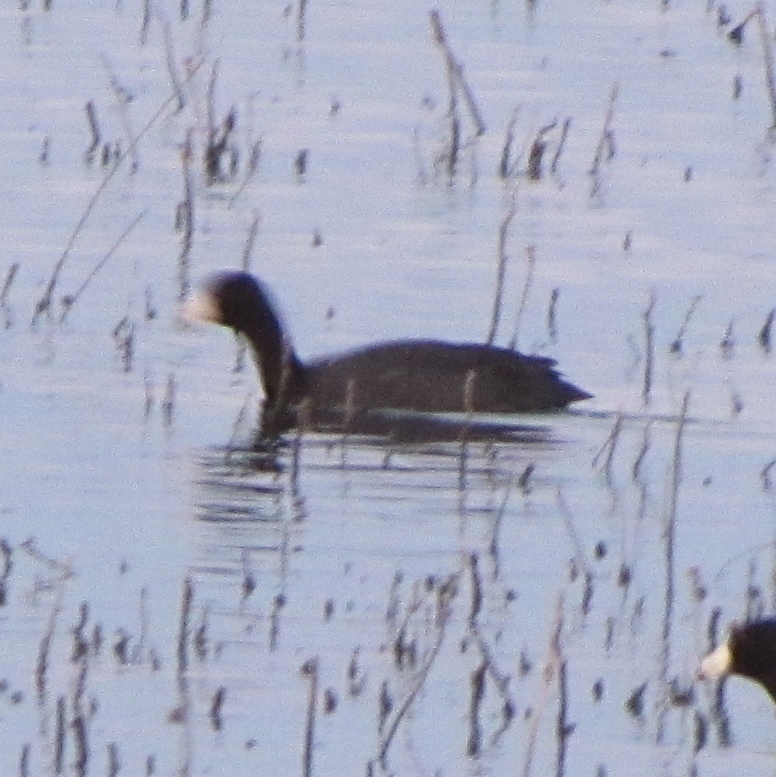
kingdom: Animalia
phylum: Chordata
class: Aves
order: Gruiformes
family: Rallidae
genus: Fulica
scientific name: Fulica americana
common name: American coot
